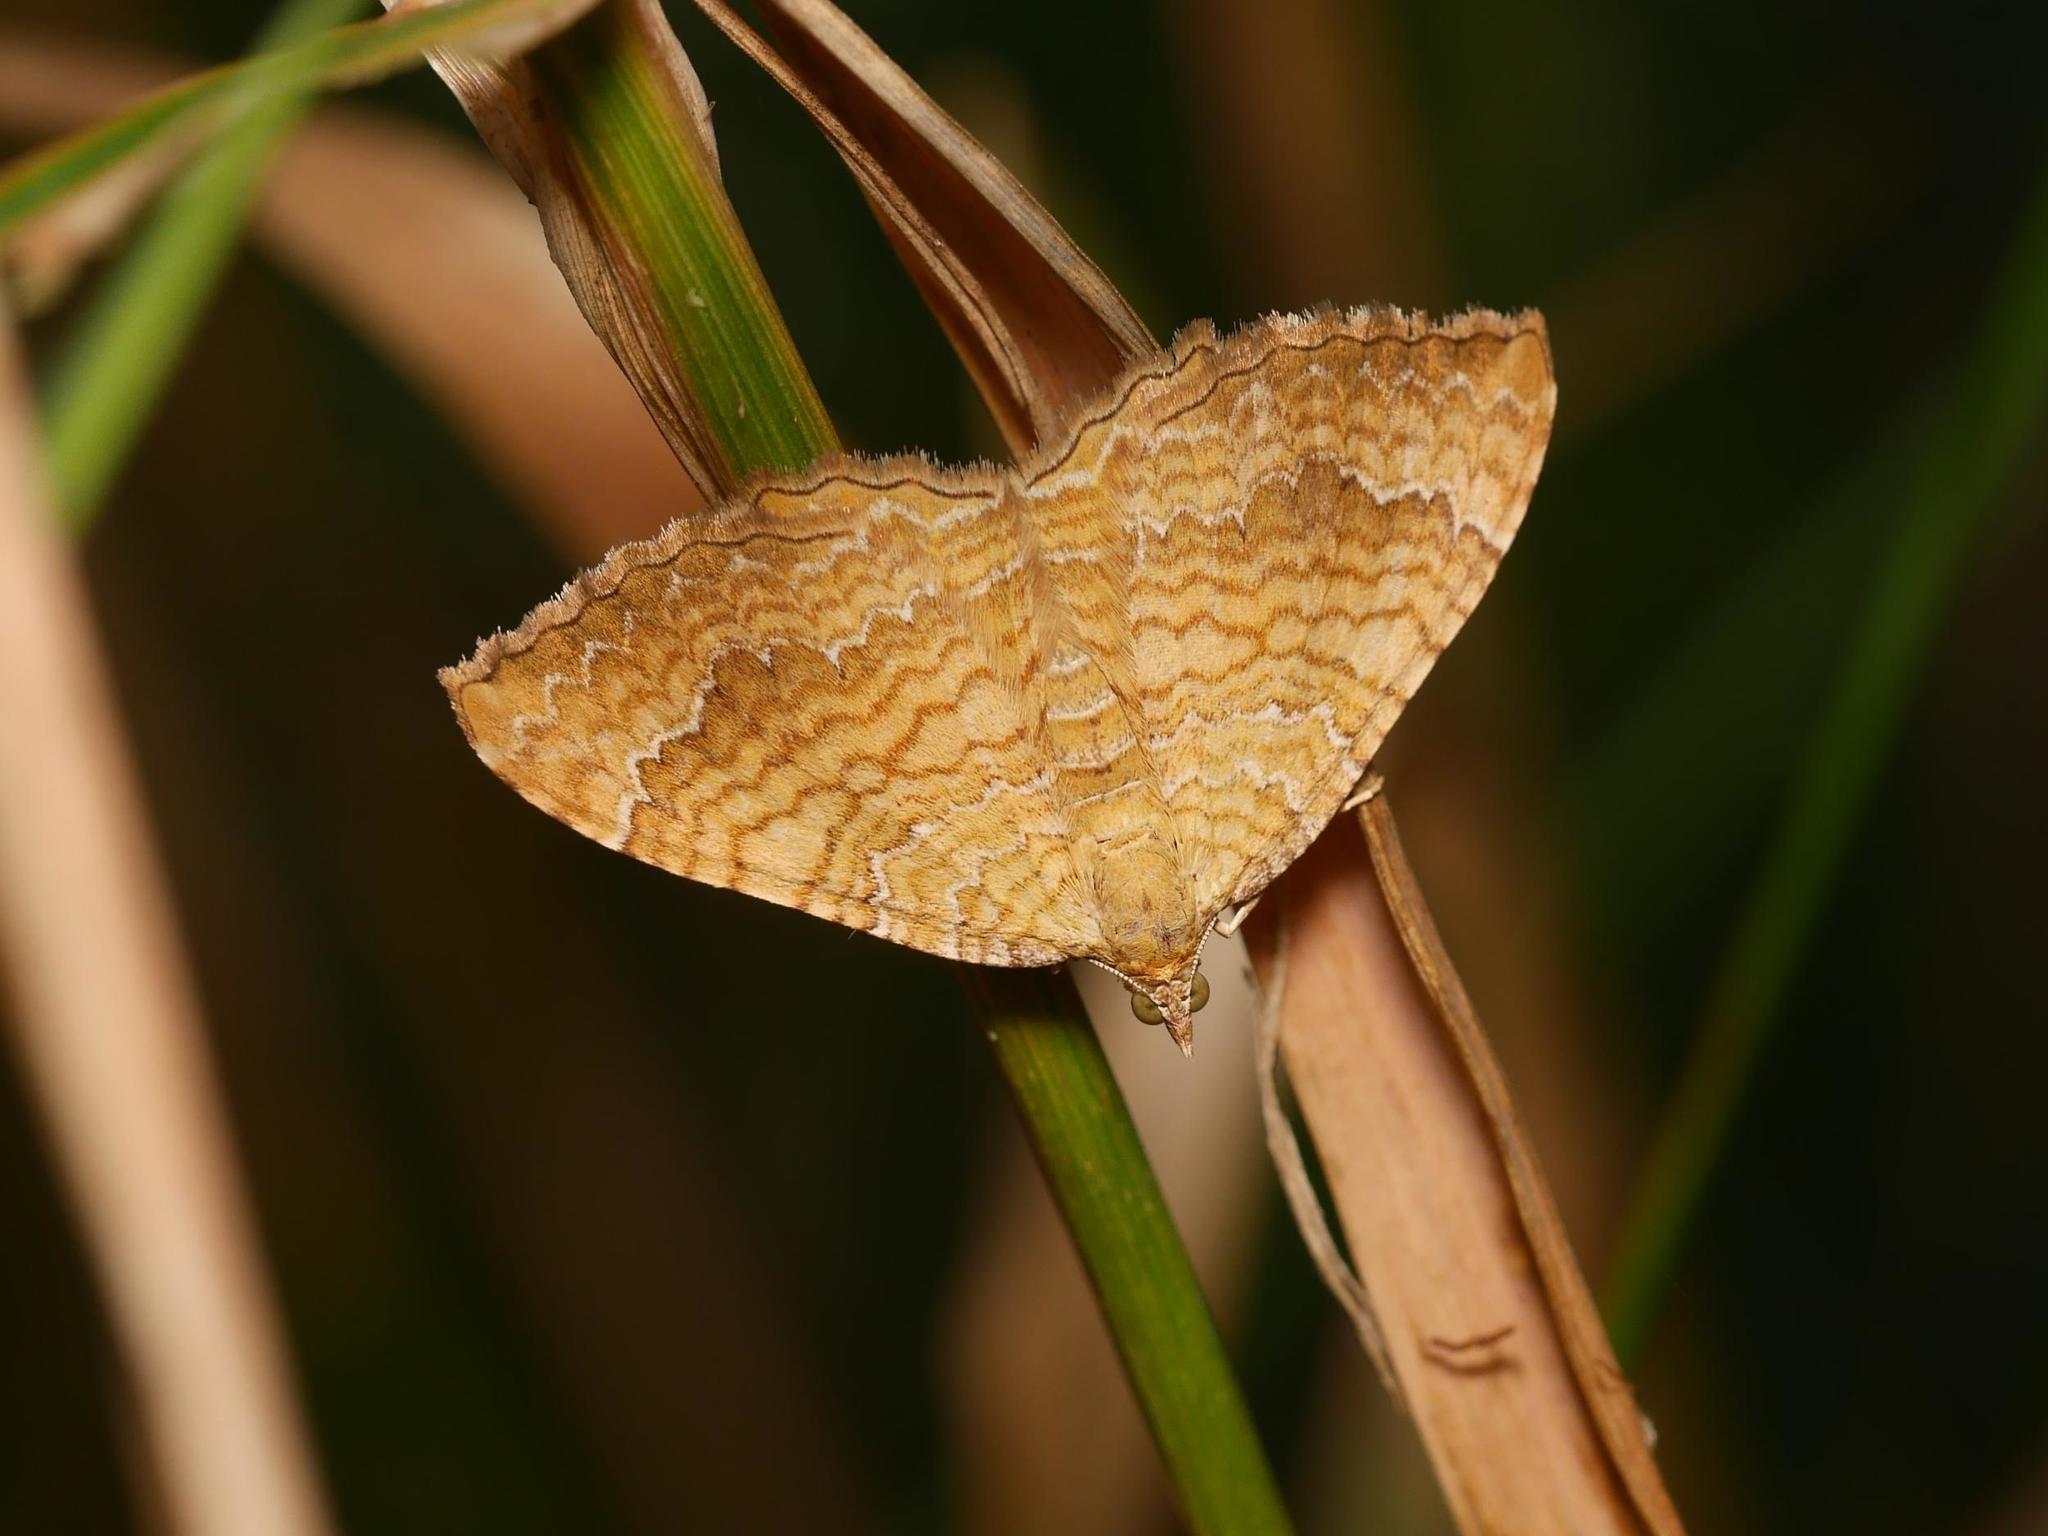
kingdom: Animalia
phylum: Arthropoda
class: Insecta
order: Lepidoptera
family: Geometridae
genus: Camptogramma
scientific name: Camptogramma bilineata
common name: Yellow shell
